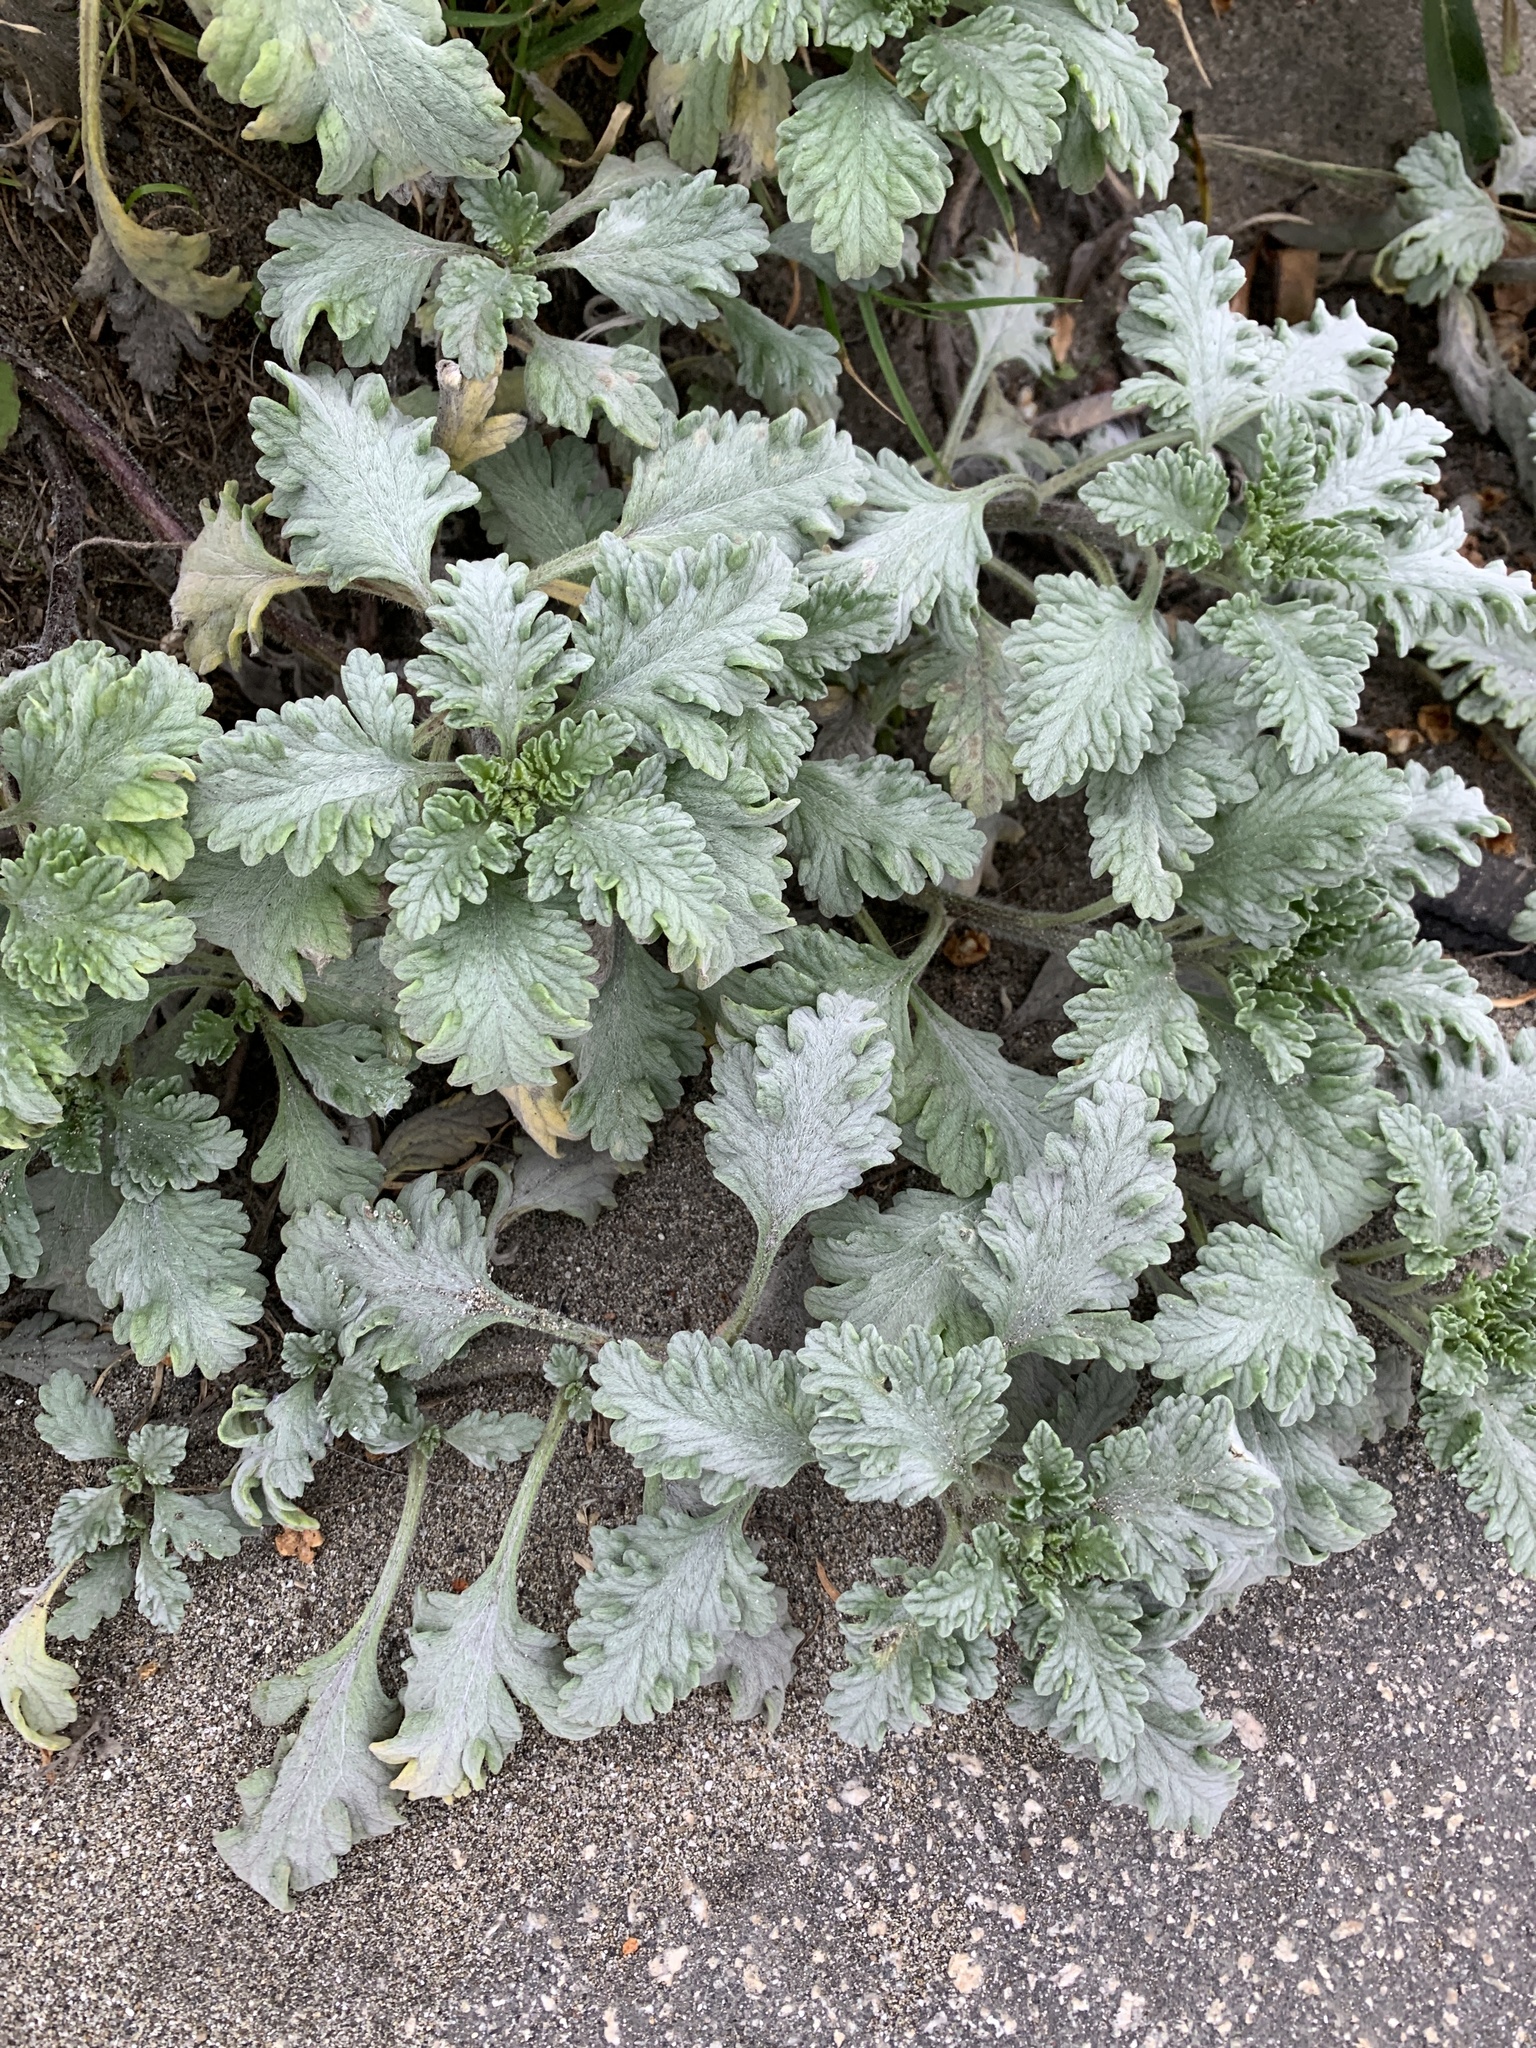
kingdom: Plantae
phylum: Tracheophyta
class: Magnoliopsida
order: Asterales
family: Asteraceae
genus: Ambrosia
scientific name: Ambrosia chamissonis
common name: Beachbur
